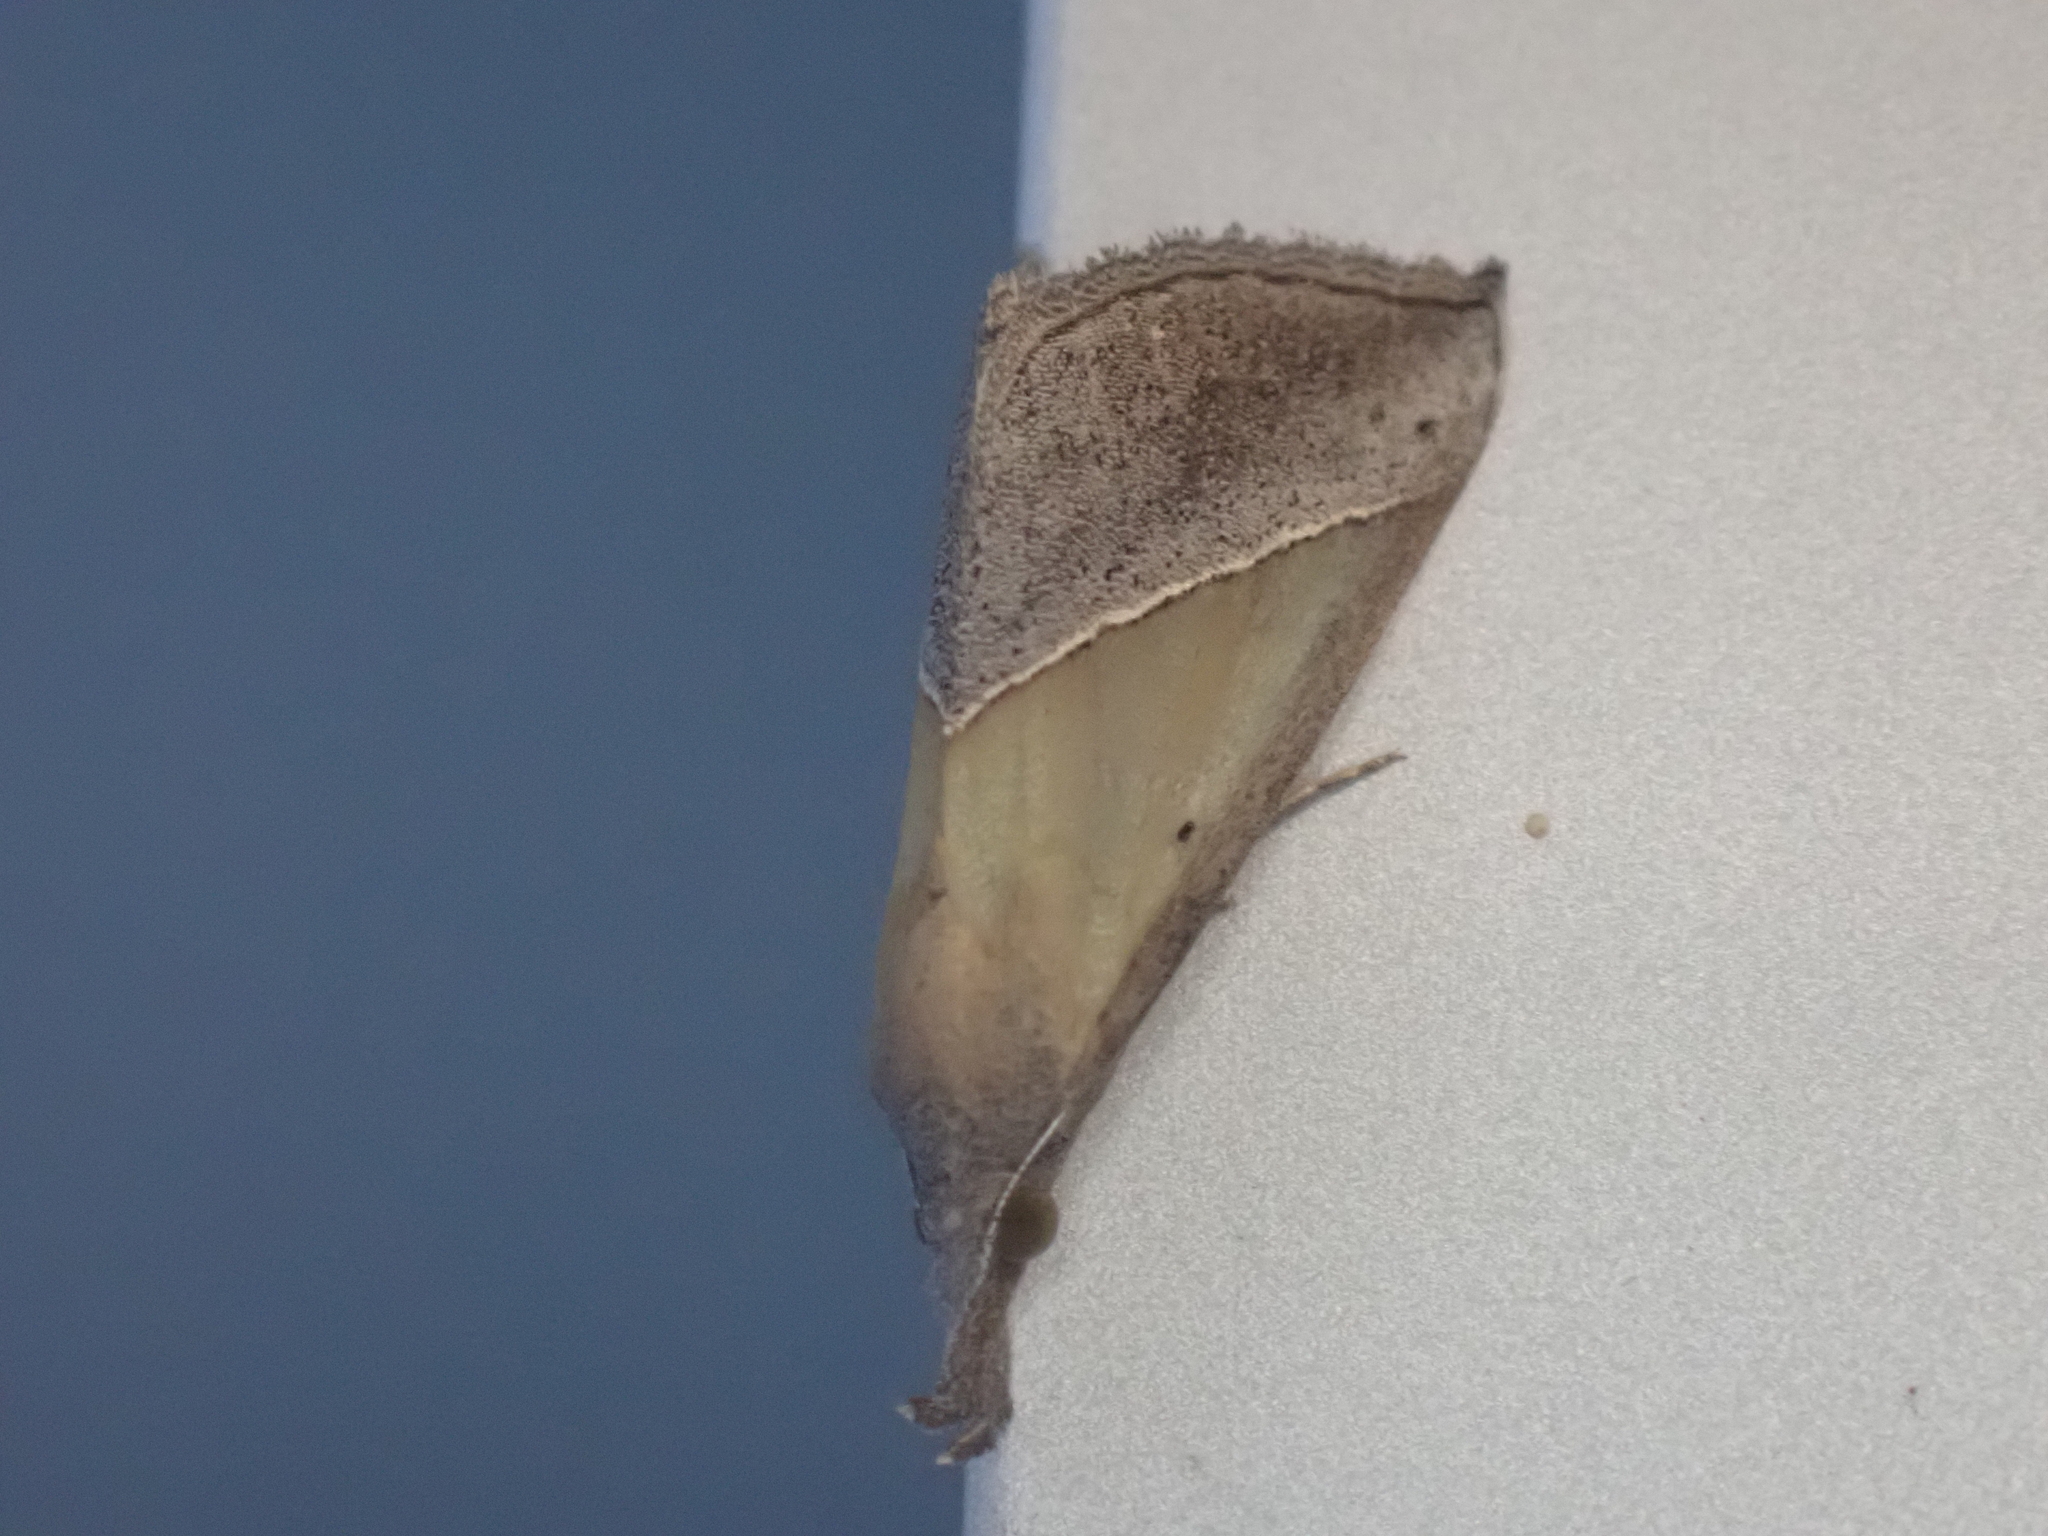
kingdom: Animalia
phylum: Arthropoda
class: Insecta
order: Lepidoptera
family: Erebidae
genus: Hypena
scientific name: Hypena lividalis
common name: Chevron snout
